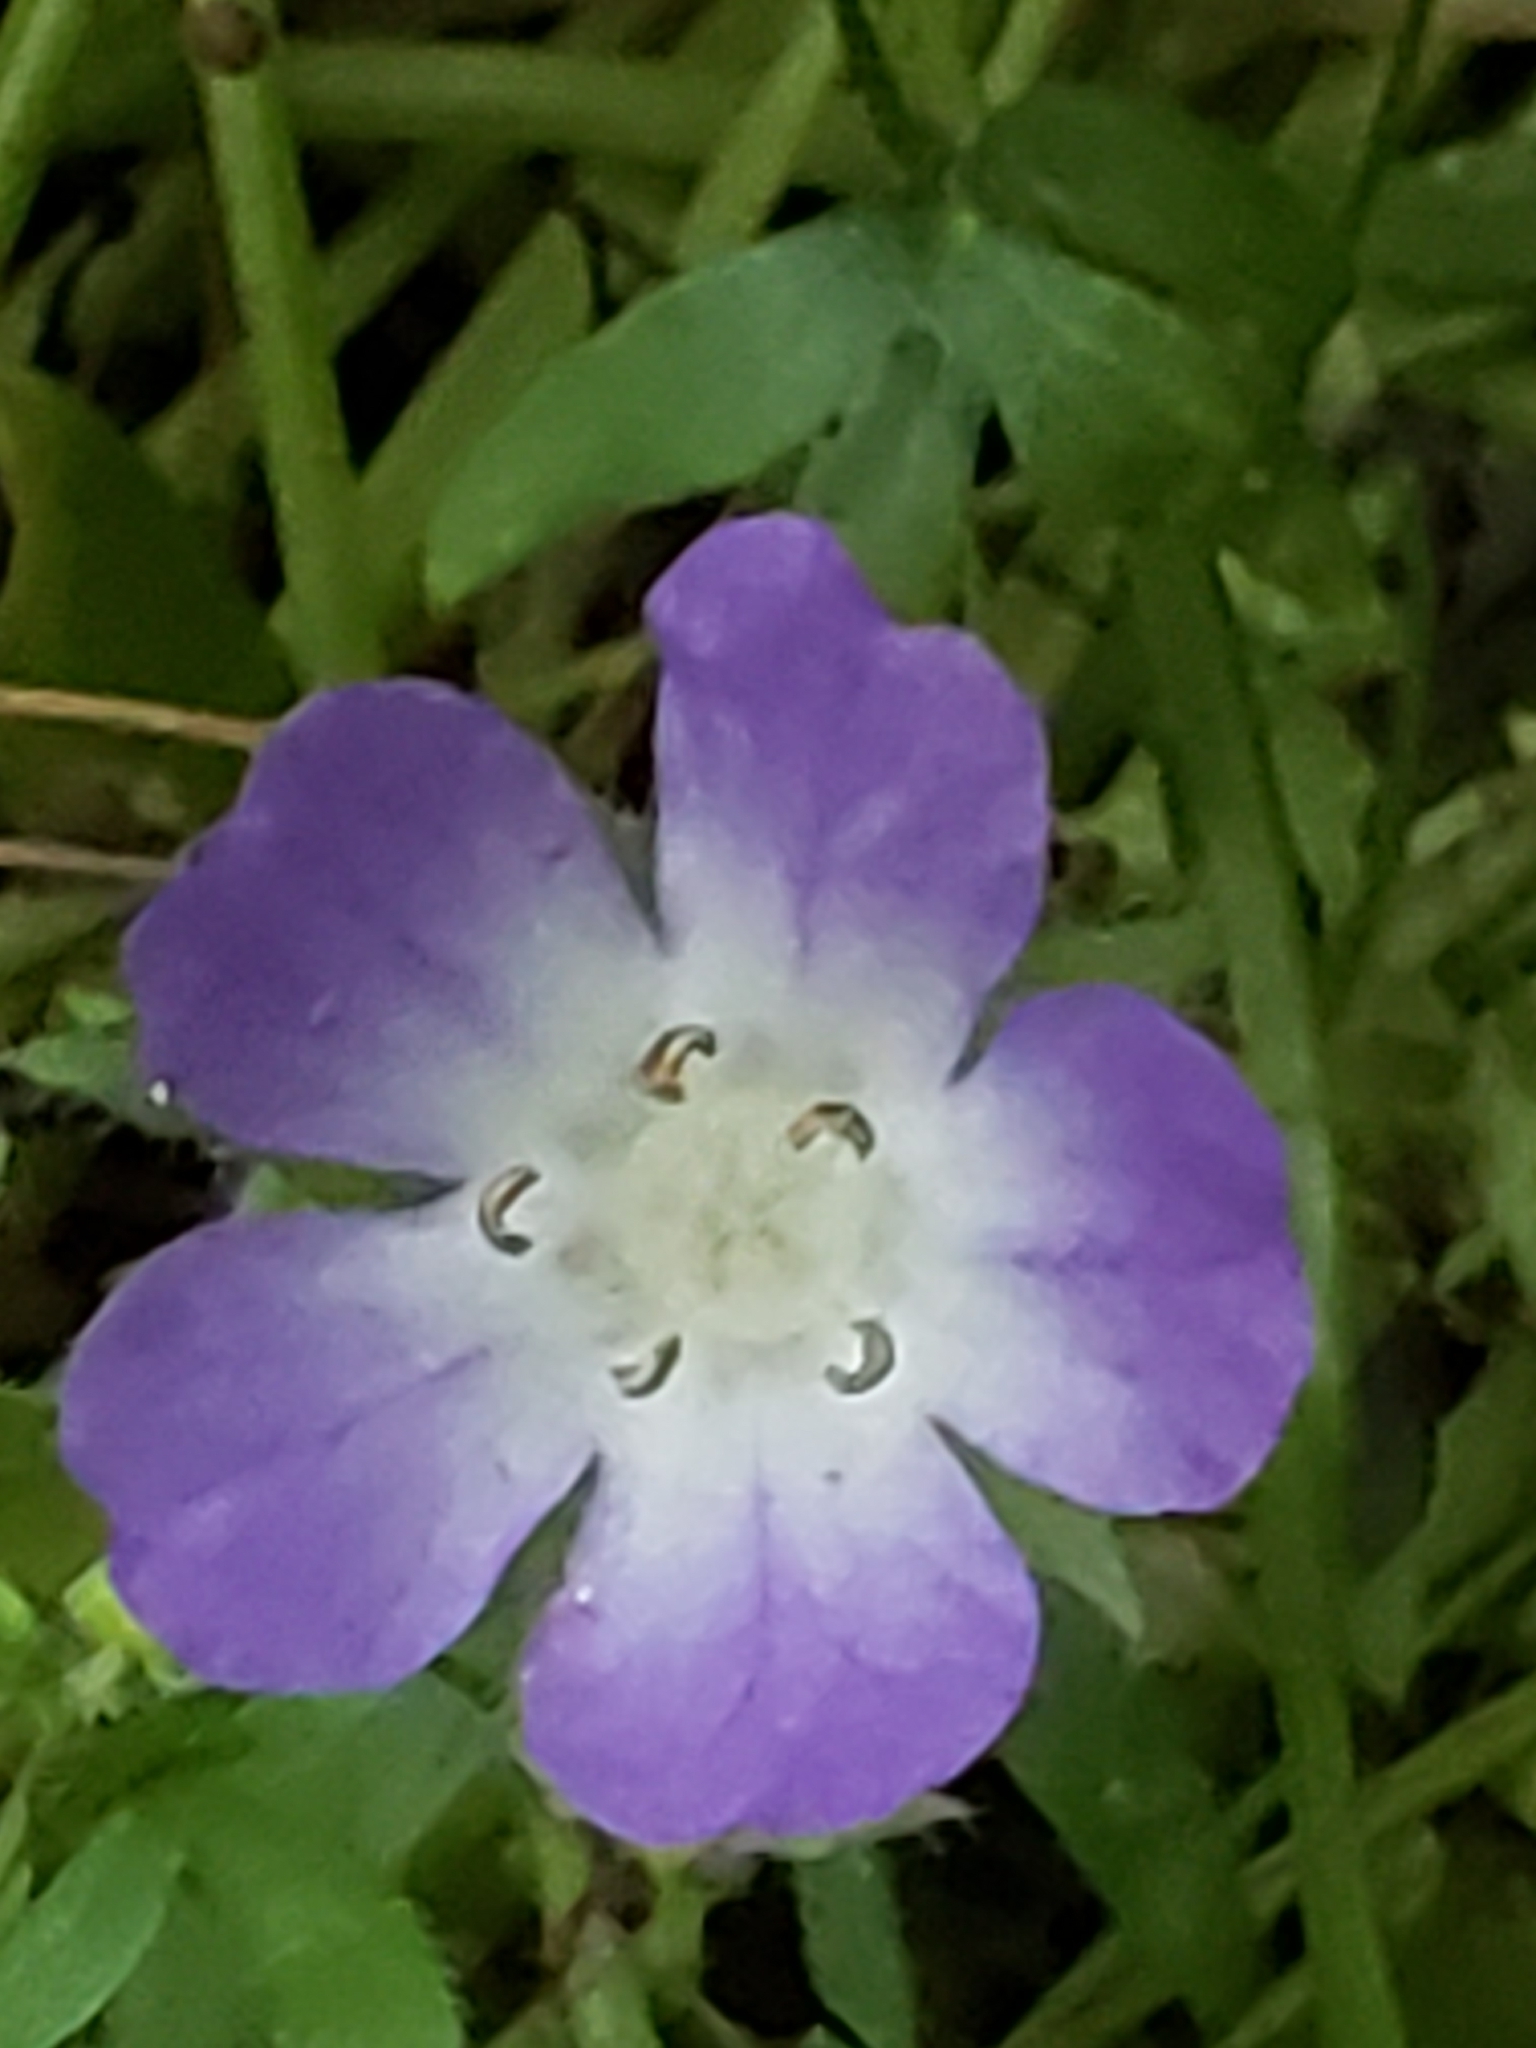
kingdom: Plantae
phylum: Tracheophyta
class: Magnoliopsida
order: Boraginales
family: Hydrophyllaceae
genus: Nemophila
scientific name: Nemophila phacelioides
